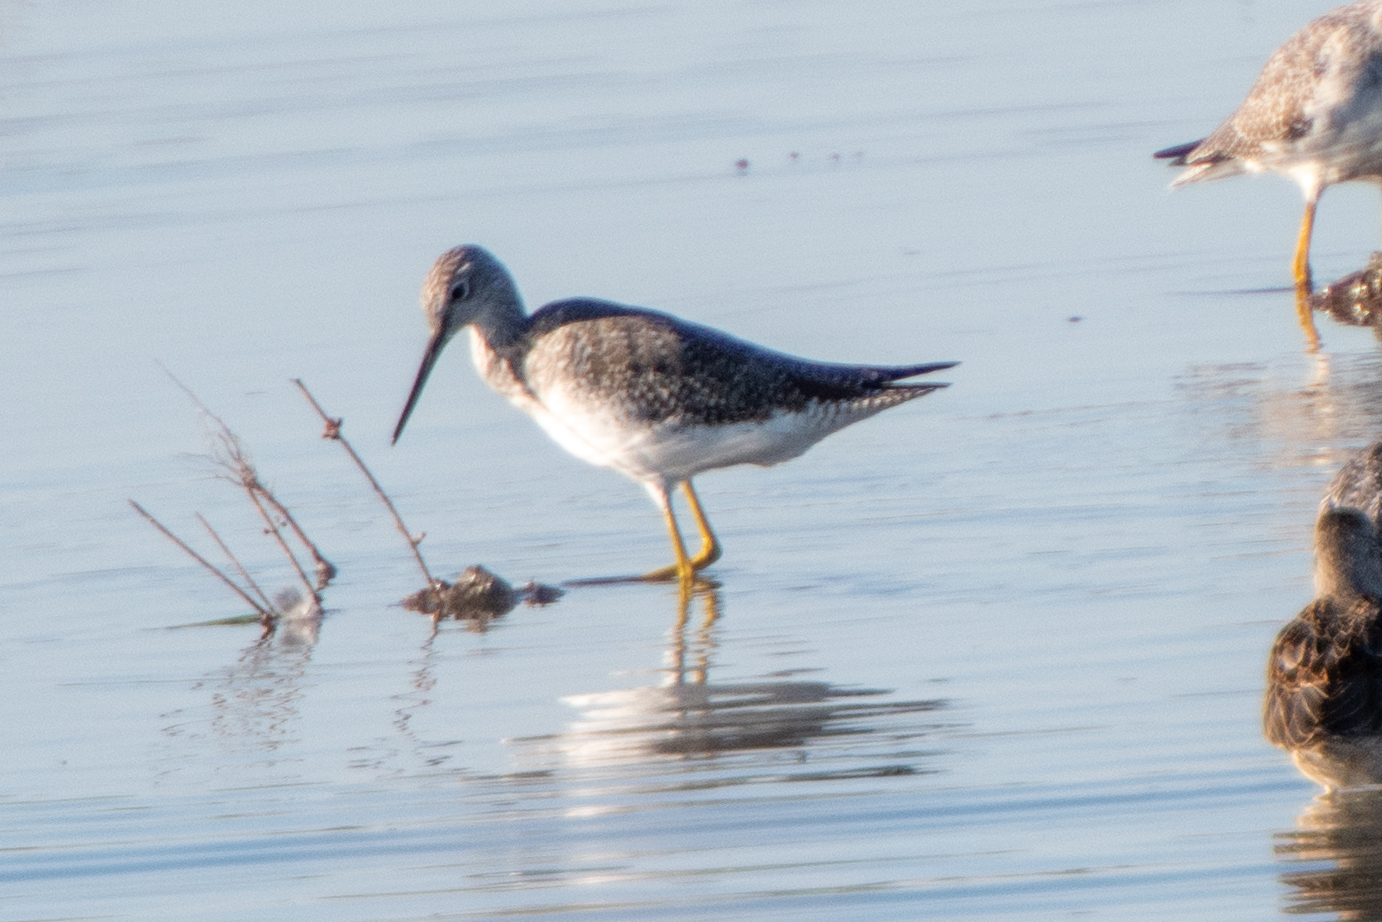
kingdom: Animalia
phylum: Chordata
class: Aves
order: Charadriiformes
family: Scolopacidae
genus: Tringa
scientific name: Tringa melanoleuca
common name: Greater yellowlegs
